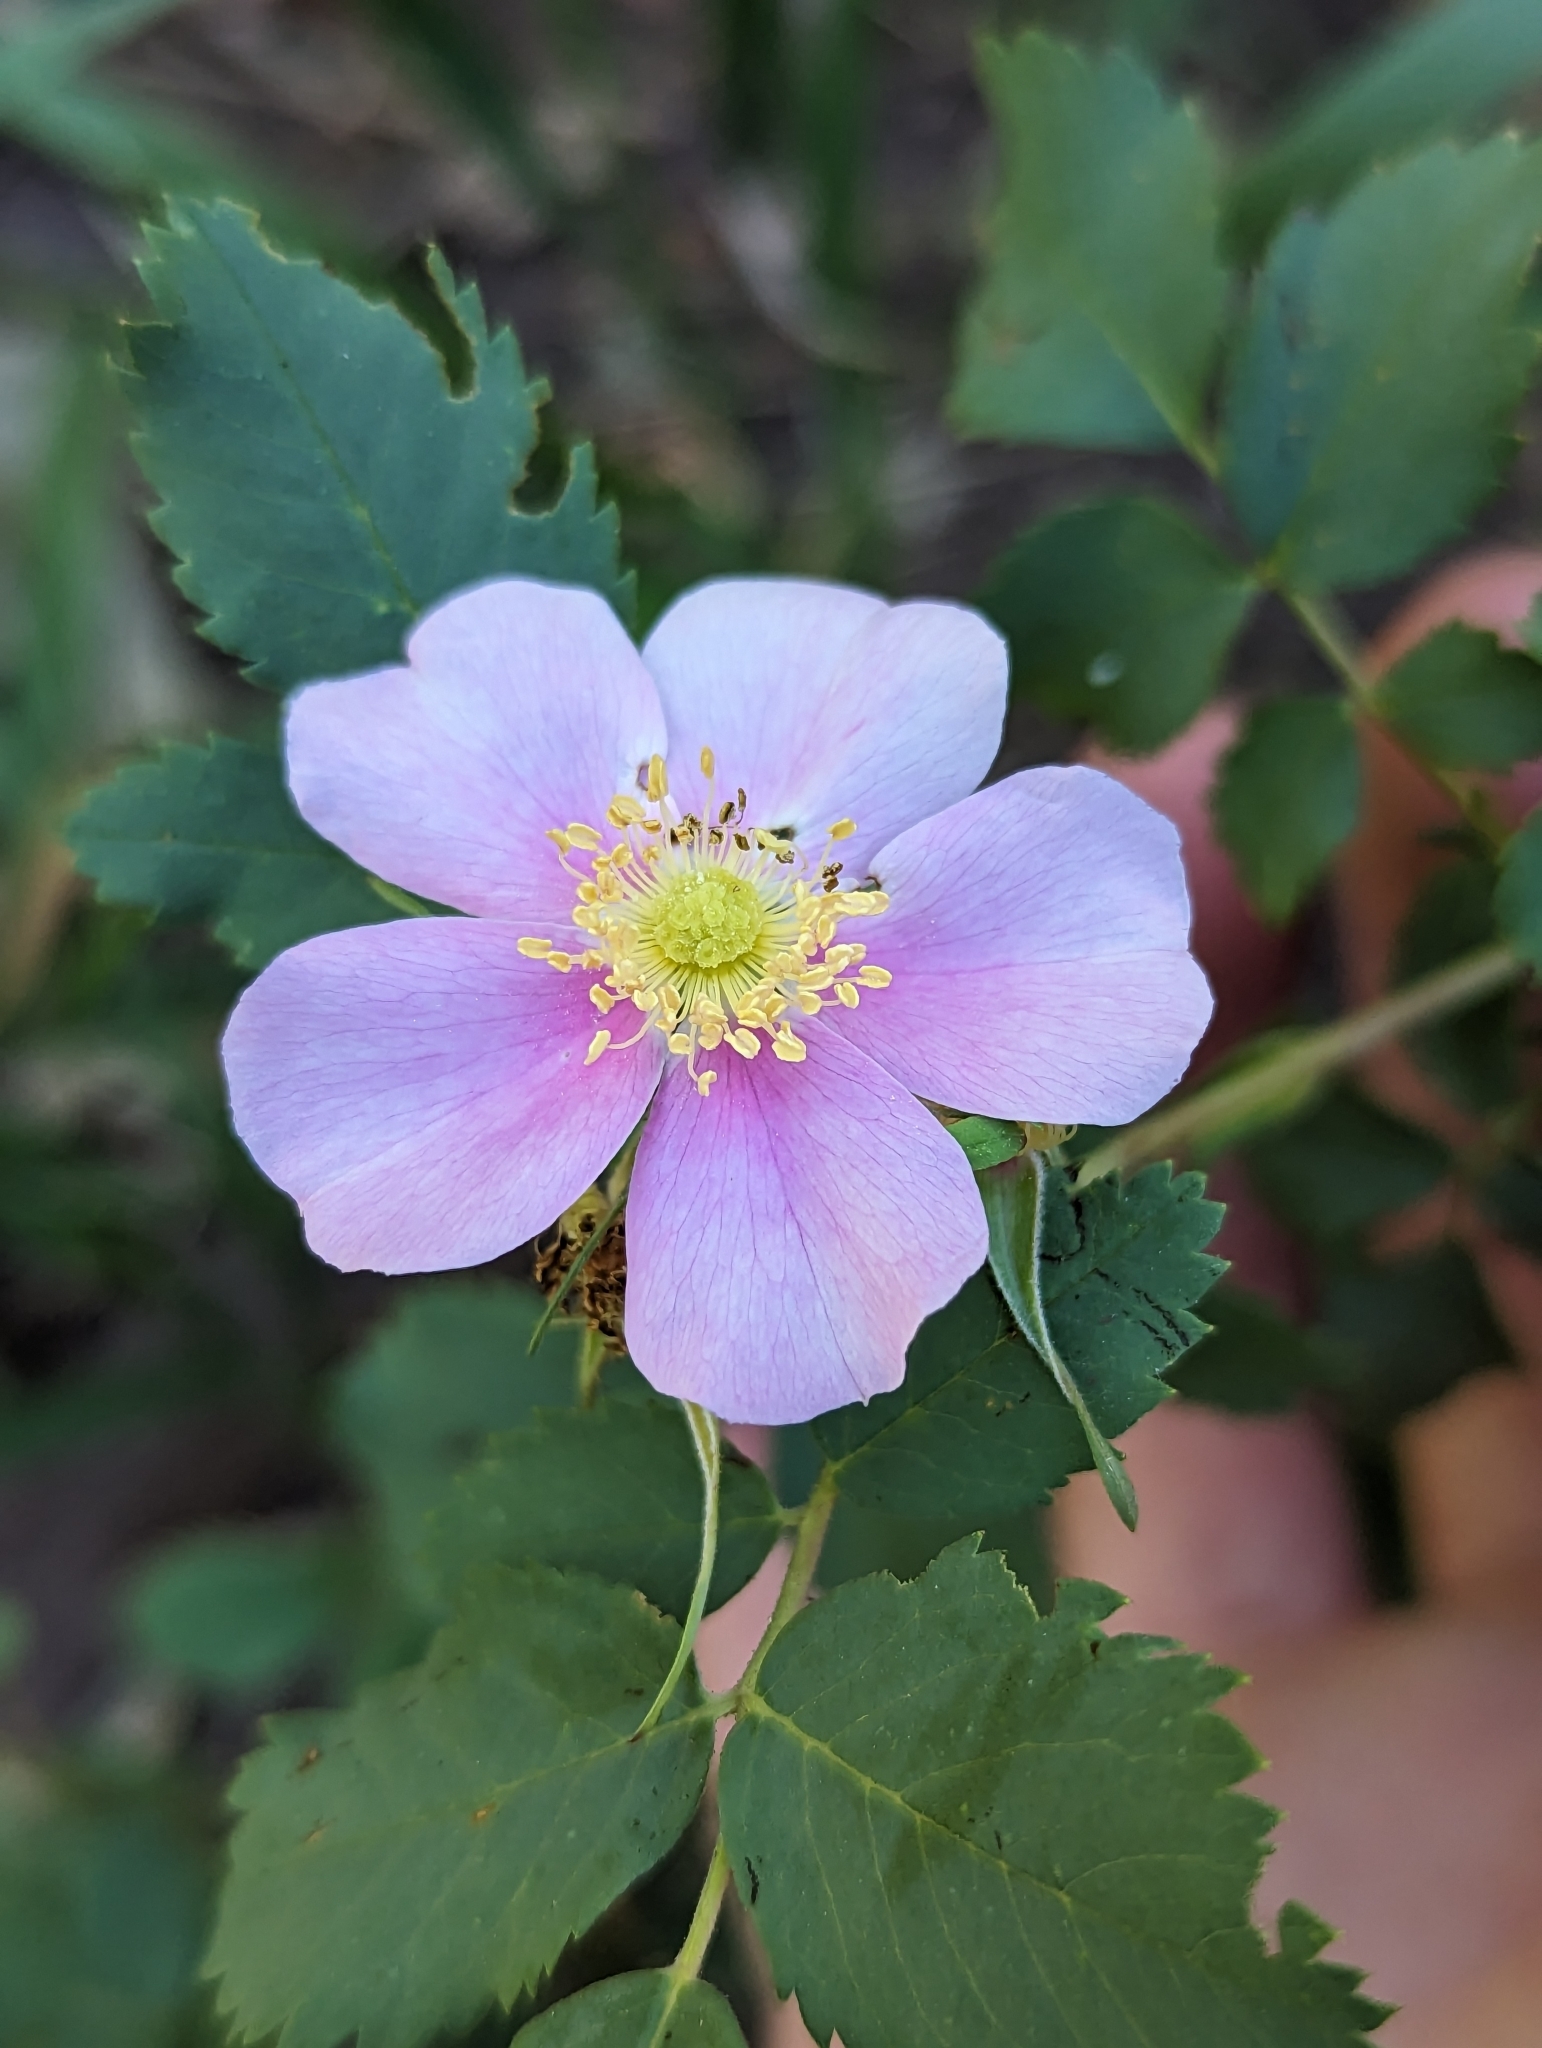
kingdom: Plantae
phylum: Tracheophyta
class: Magnoliopsida
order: Rosales
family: Rosaceae
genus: Rosa
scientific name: Rosa woodsii
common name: Woods's rose
